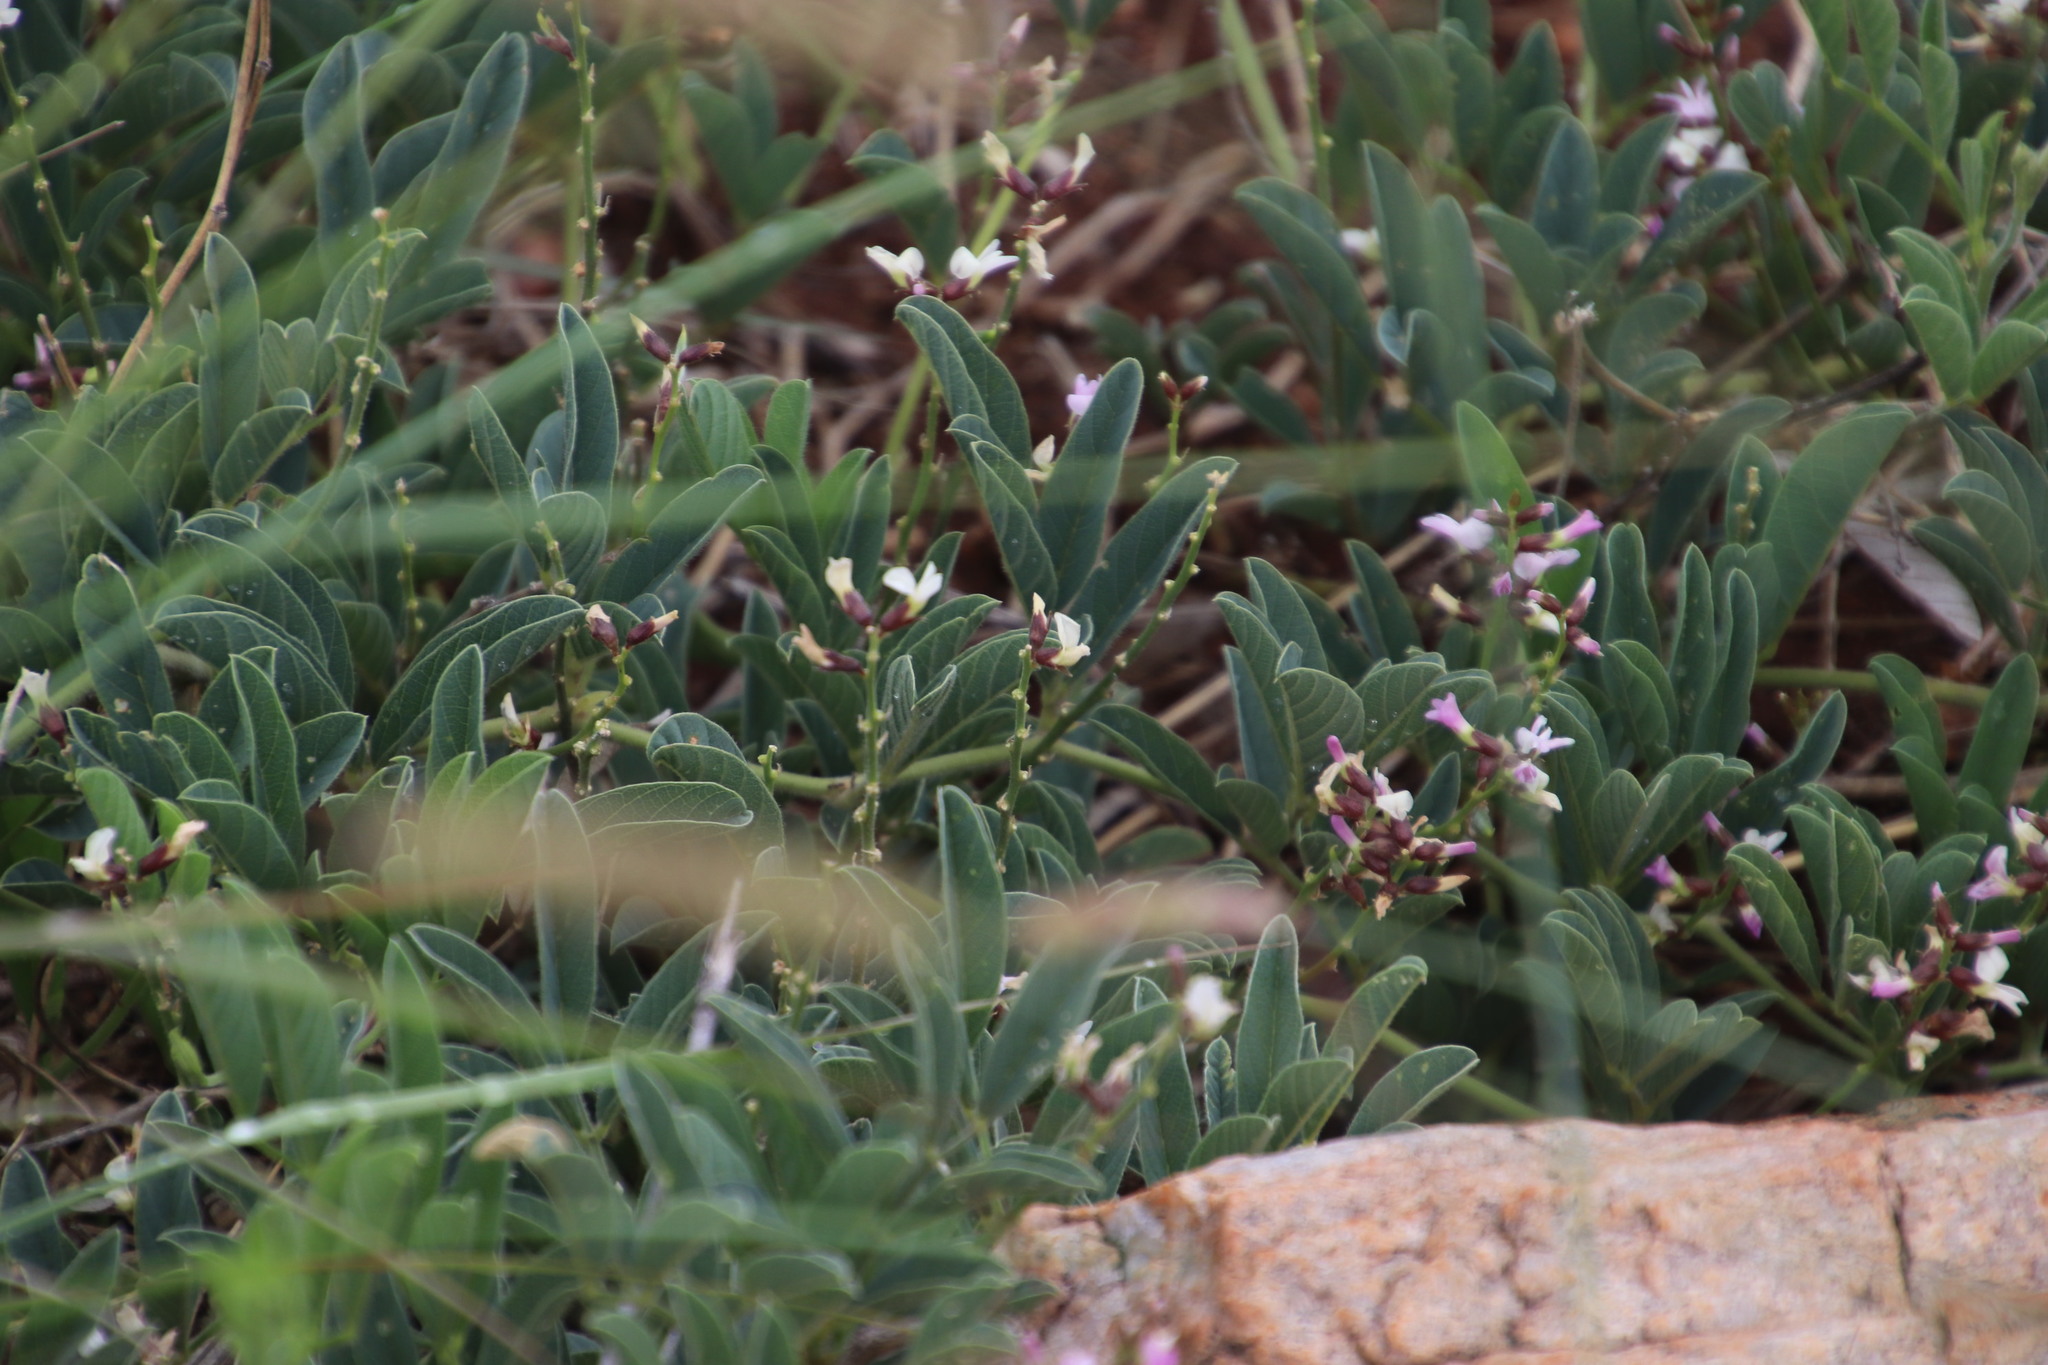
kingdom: Plantae
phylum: Tracheophyta
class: Magnoliopsida
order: Fabales
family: Fabaceae
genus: Ophrestia
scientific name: Ophrestia oblongifolia
